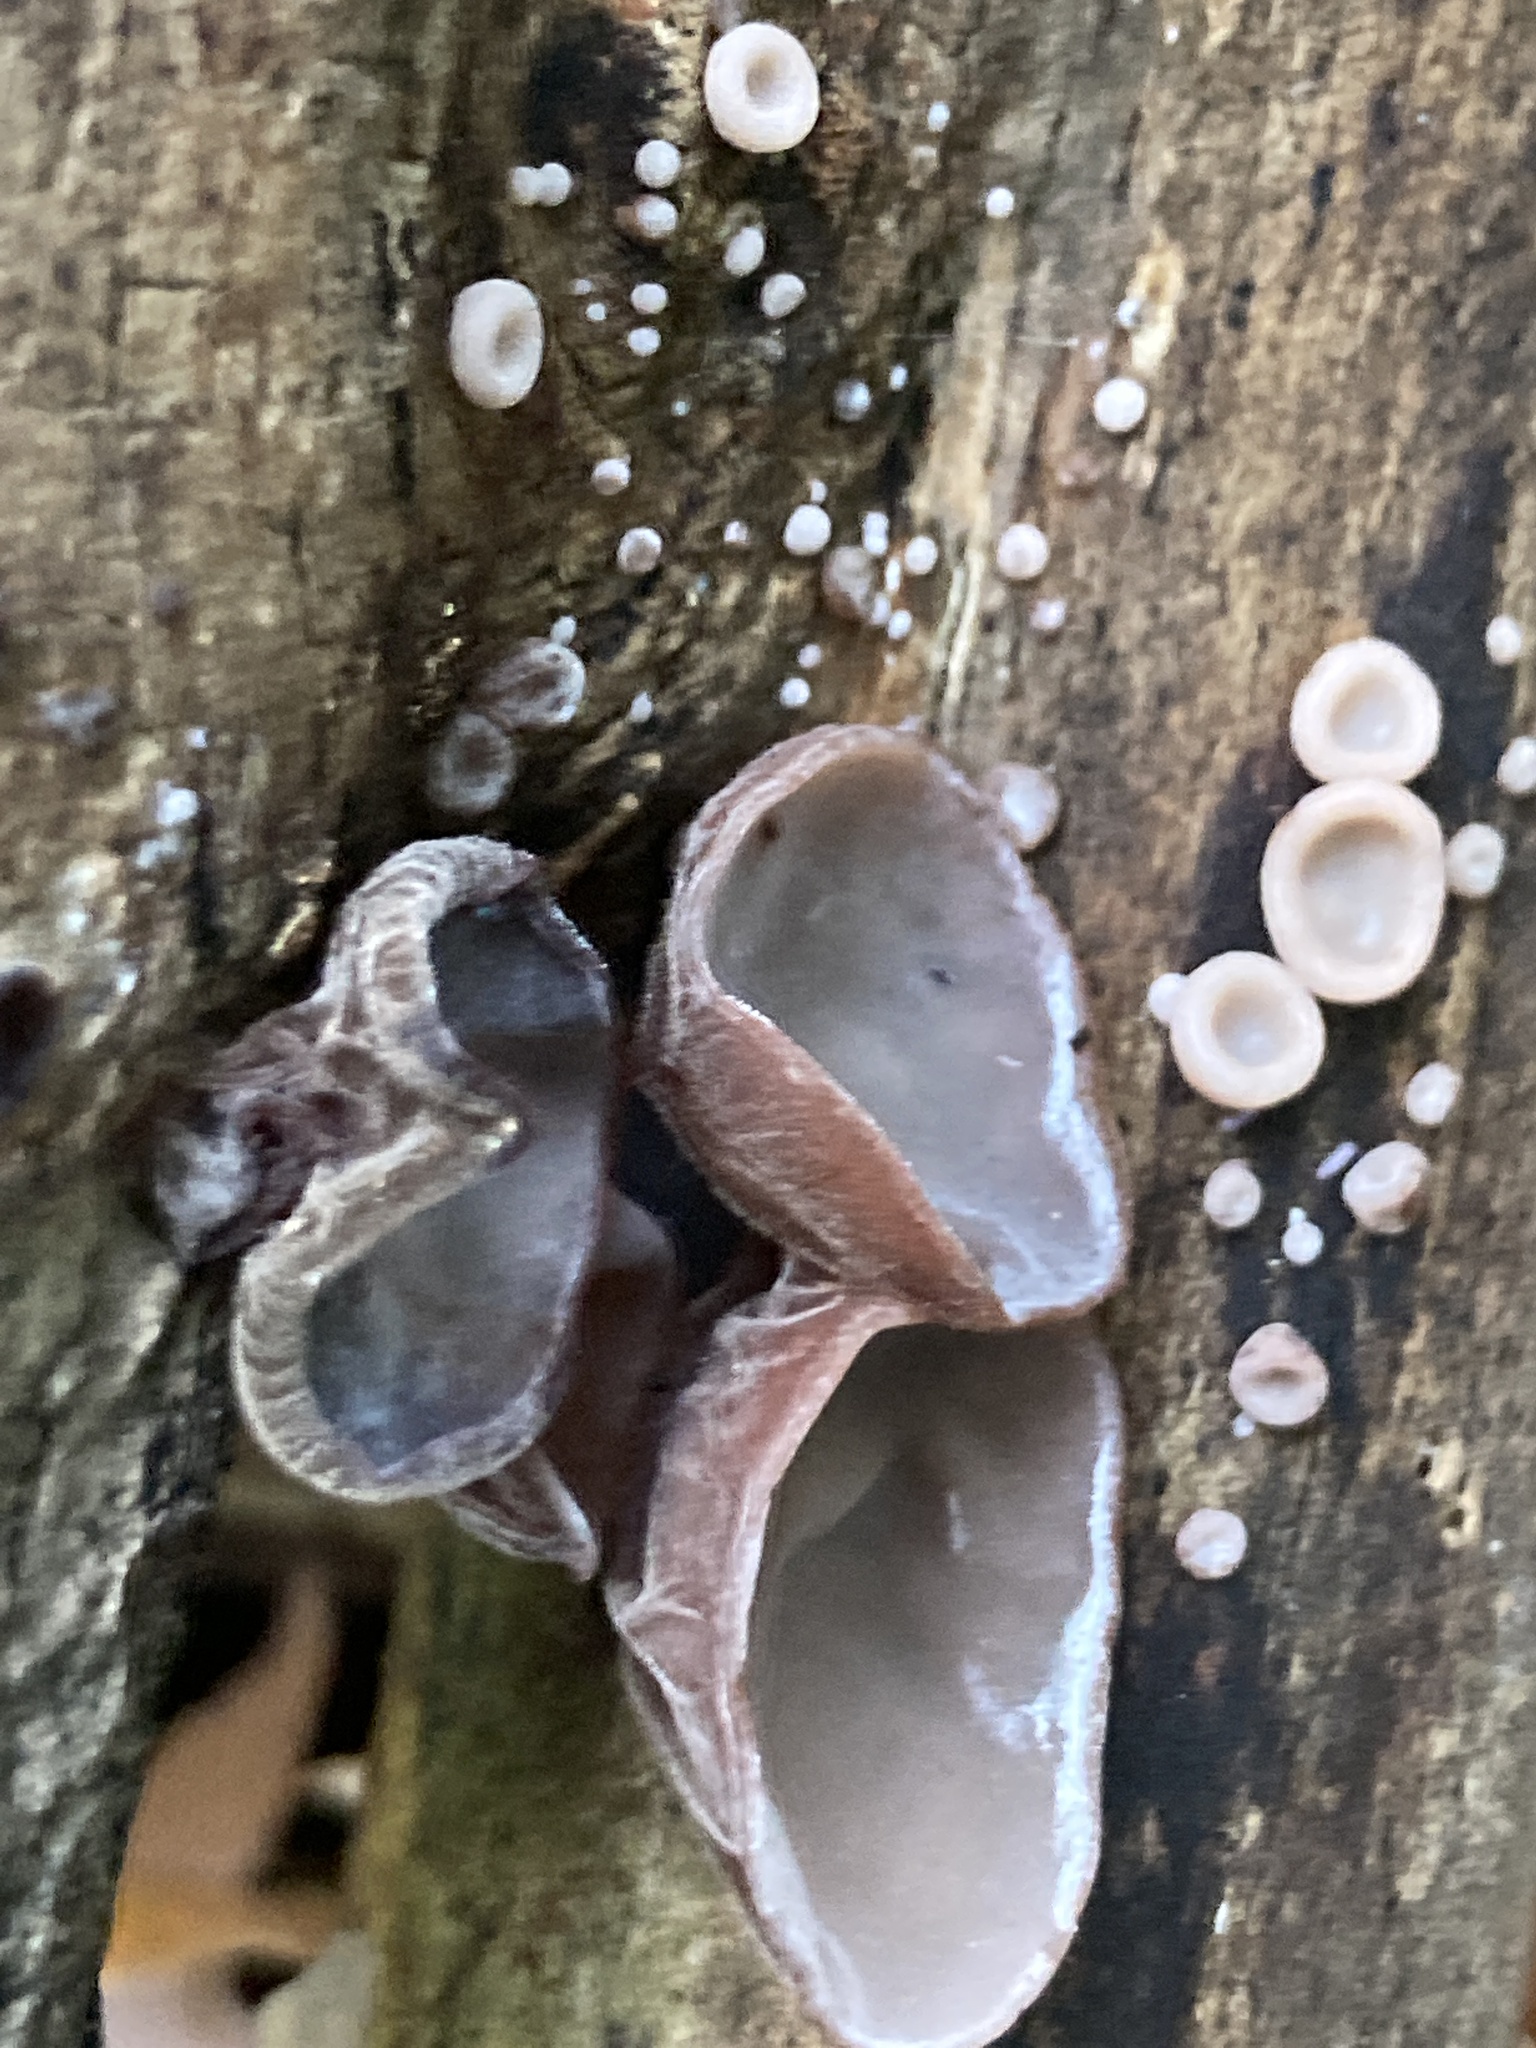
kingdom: Fungi
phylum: Basidiomycota
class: Agaricomycetes
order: Auriculariales
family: Auriculariaceae
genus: Auricularia
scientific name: Auricularia auricula-judae
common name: Jelly ear
